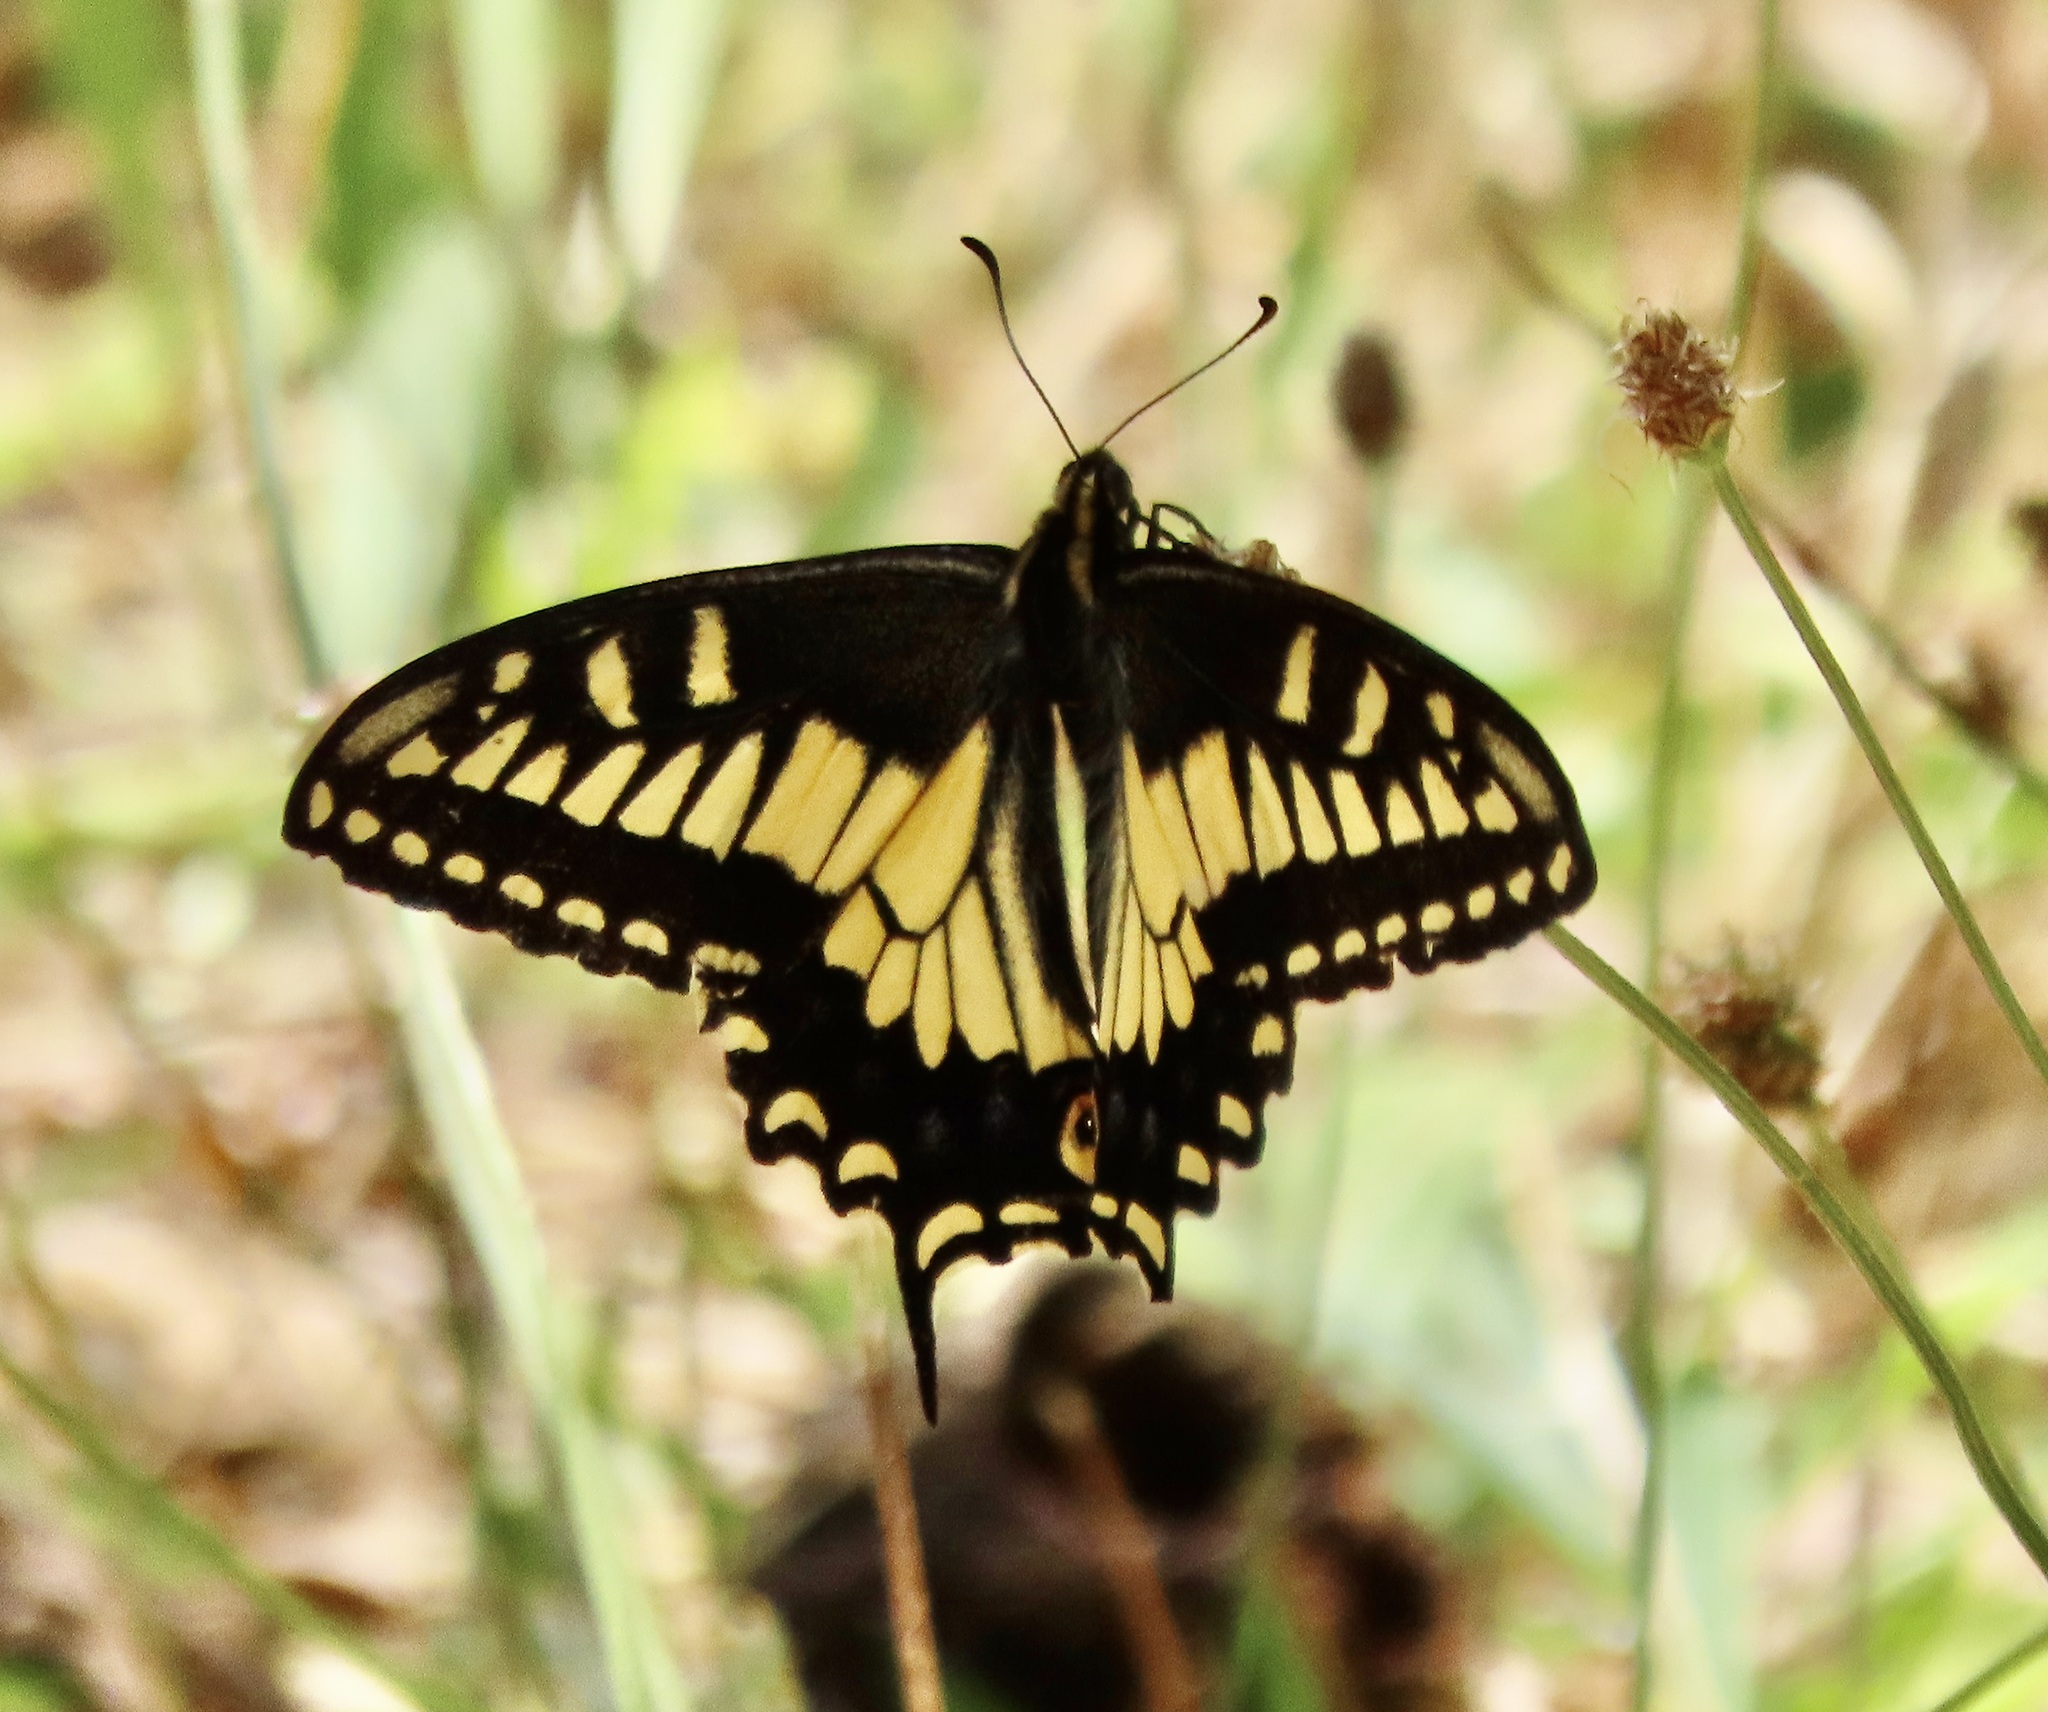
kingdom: Animalia
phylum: Arthropoda
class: Insecta
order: Lepidoptera
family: Papilionidae
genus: Papilio
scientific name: Papilio zelicaon
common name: Anise swallowtail
